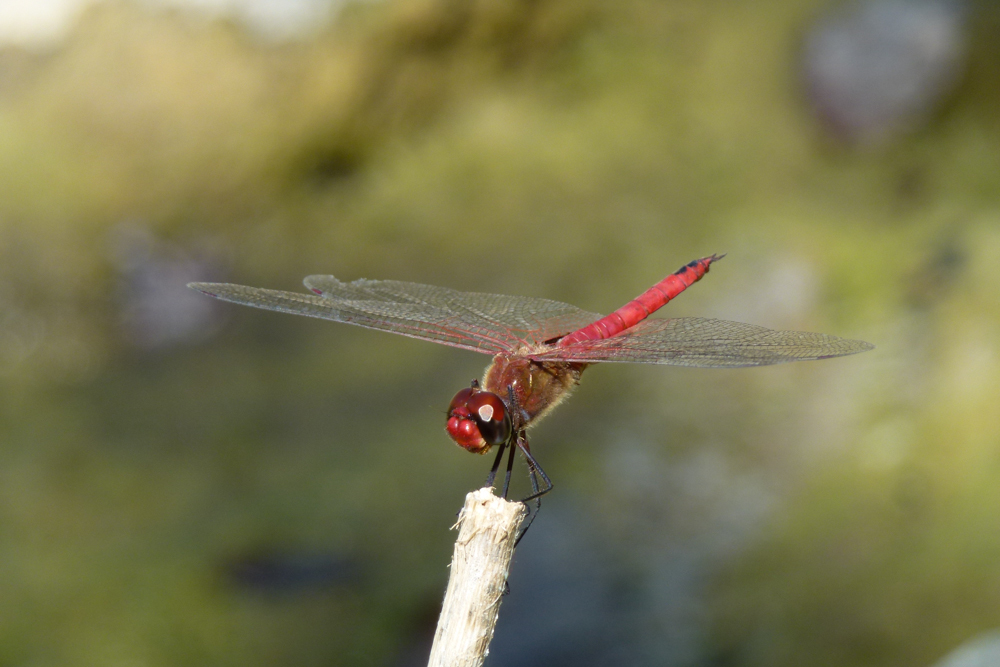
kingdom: Animalia
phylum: Arthropoda
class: Insecta
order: Odonata
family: Libellulidae
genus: Tramea
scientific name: Tramea abdominalis
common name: Vermilion saddlebags
